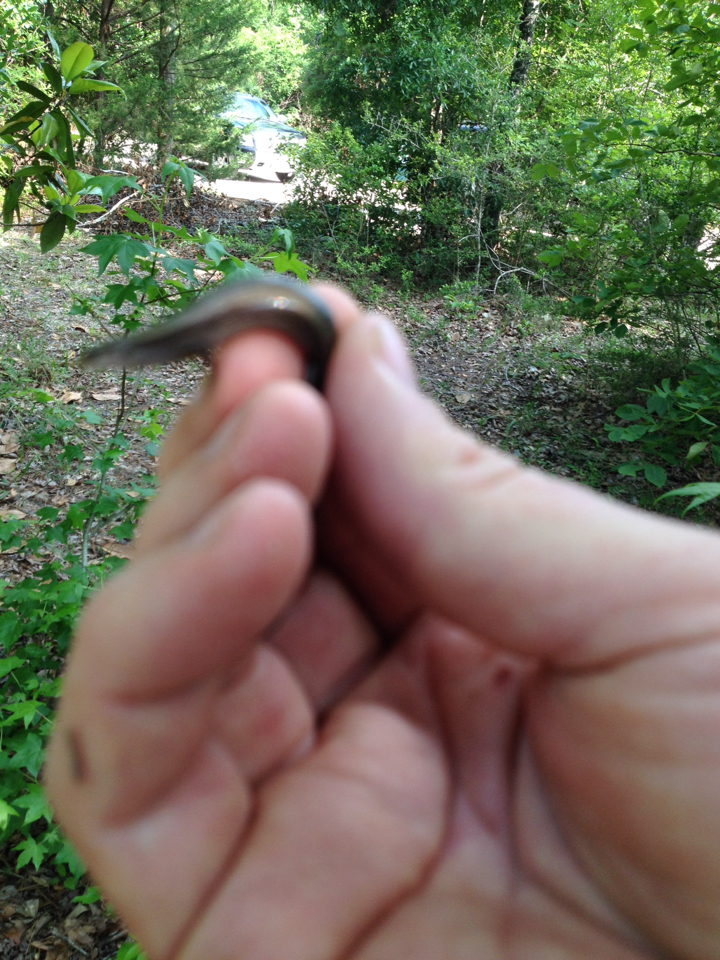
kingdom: Animalia
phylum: Chordata
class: Squamata
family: Scincidae
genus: Scincella
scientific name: Scincella lateralis
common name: Ground skink
